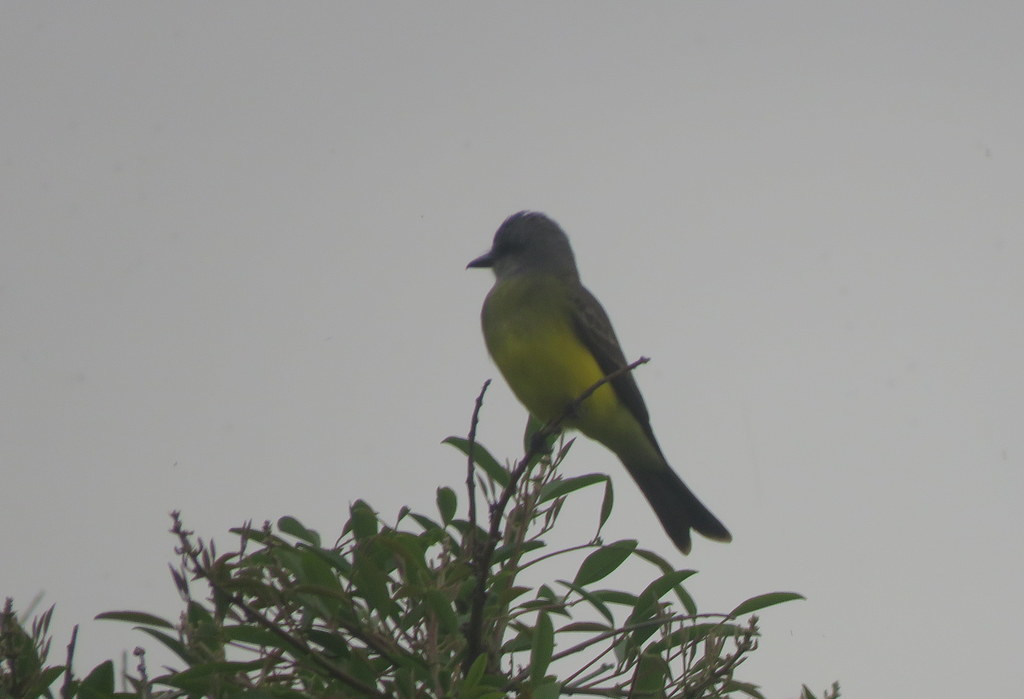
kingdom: Animalia
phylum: Chordata
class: Aves
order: Passeriformes
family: Tyrannidae
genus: Tyrannus
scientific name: Tyrannus melancholicus
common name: Tropical kingbird
